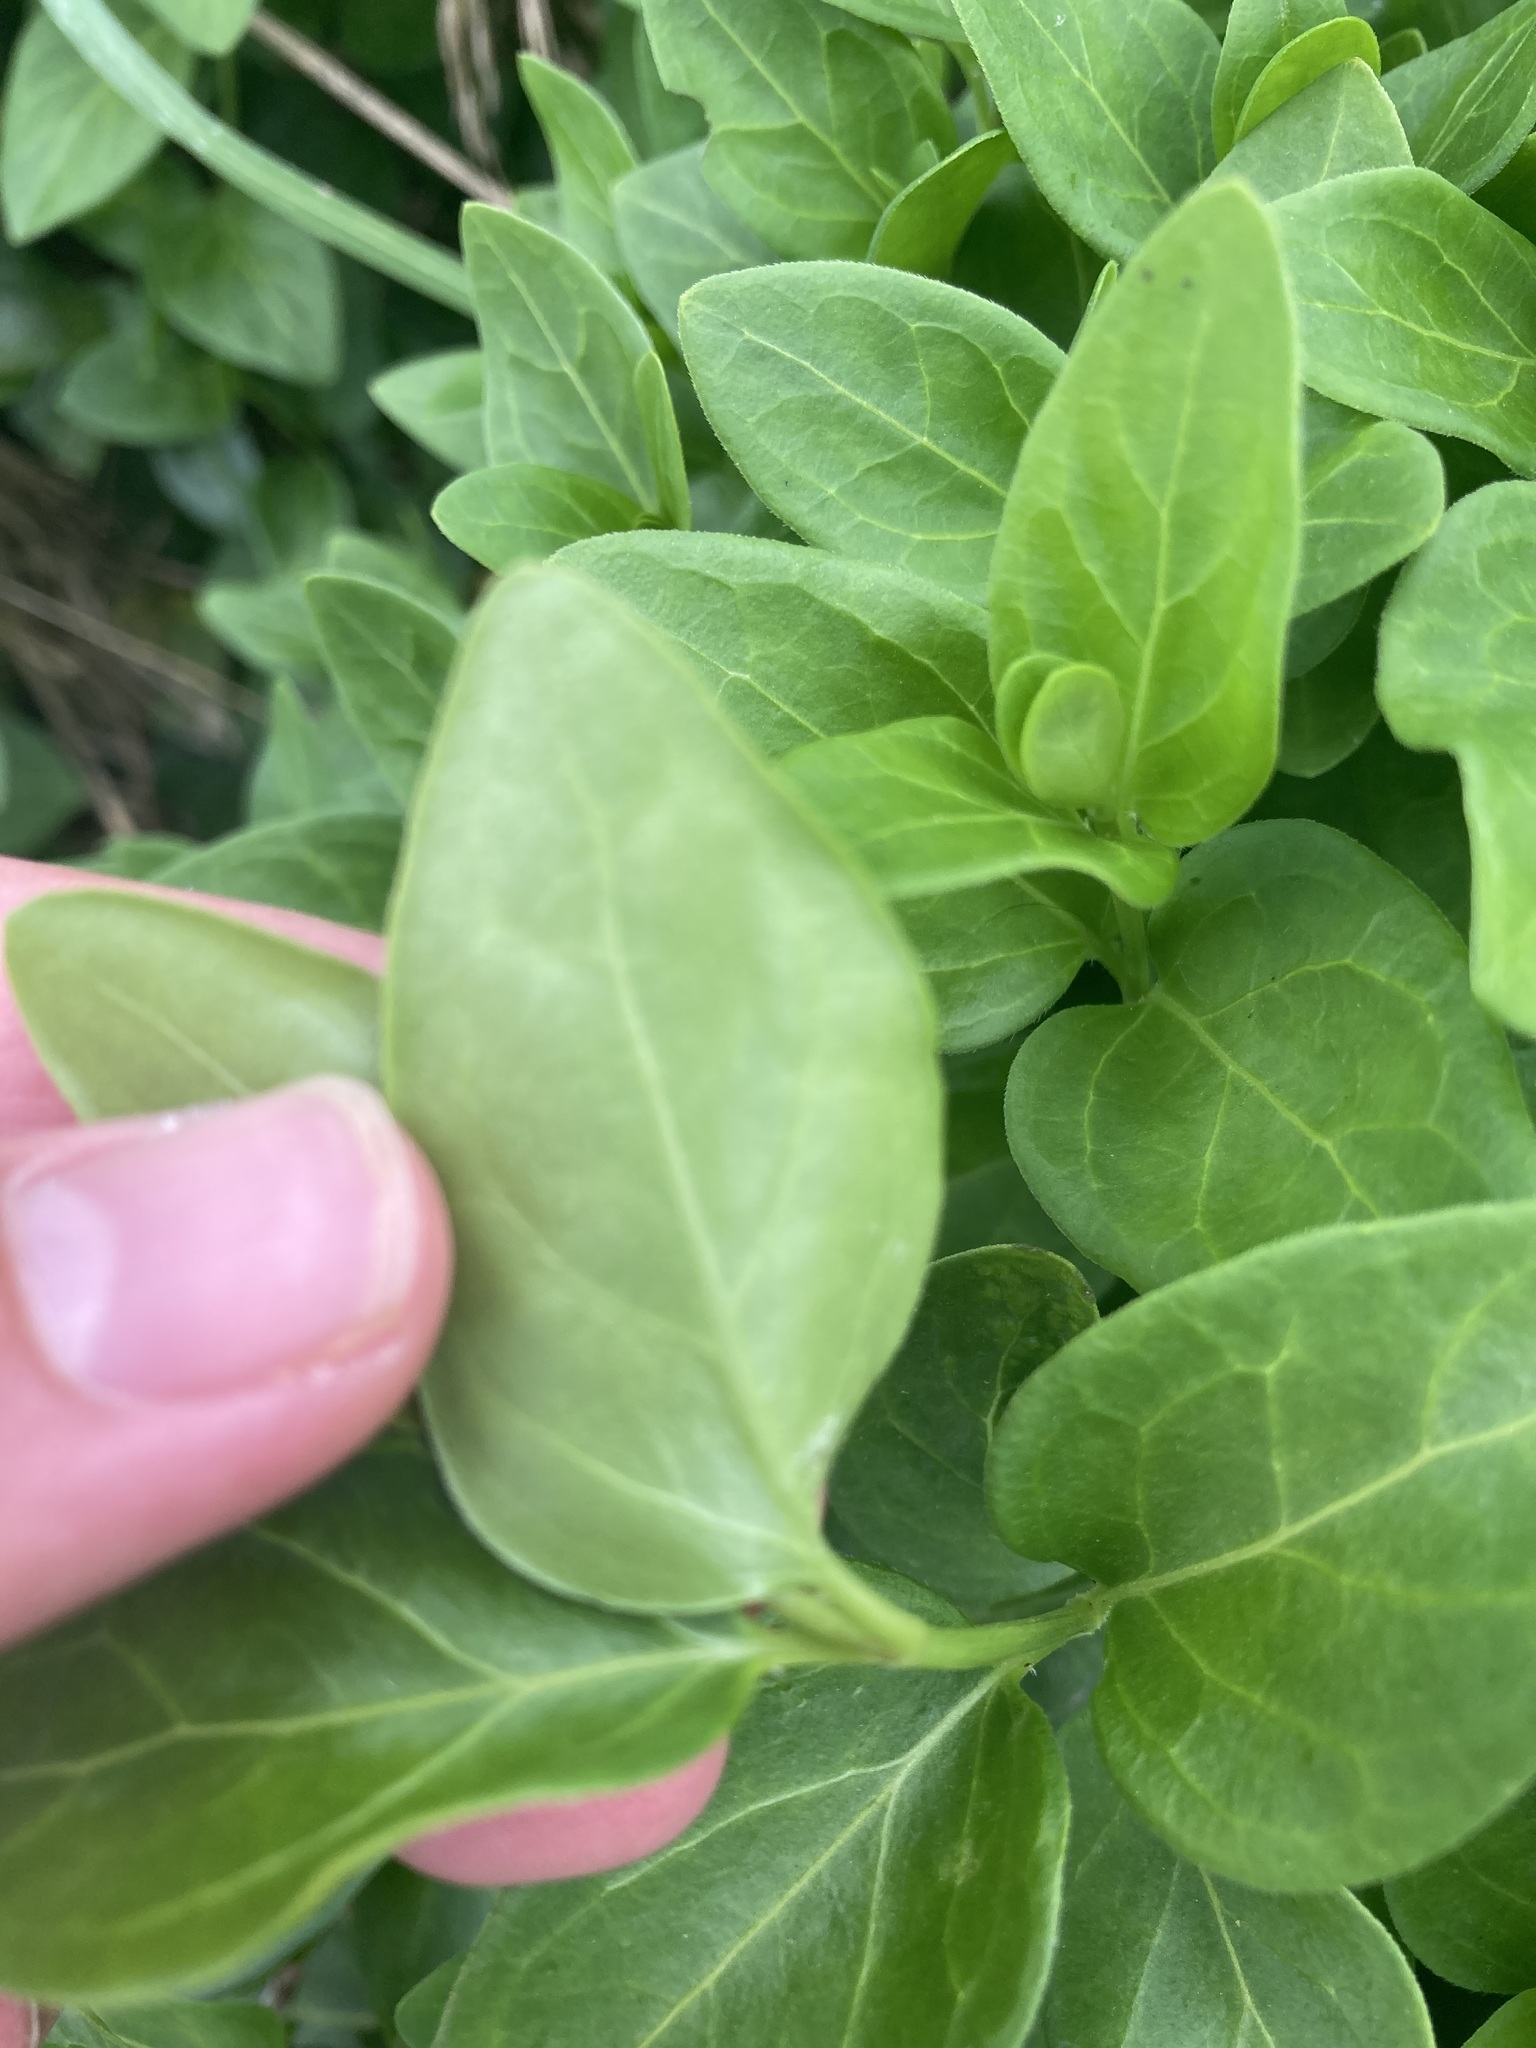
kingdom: Plantae
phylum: Tracheophyta
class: Magnoliopsida
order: Gentianales
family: Apocynaceae
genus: Vinca
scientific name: Vinca major
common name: Greater periwinkle
